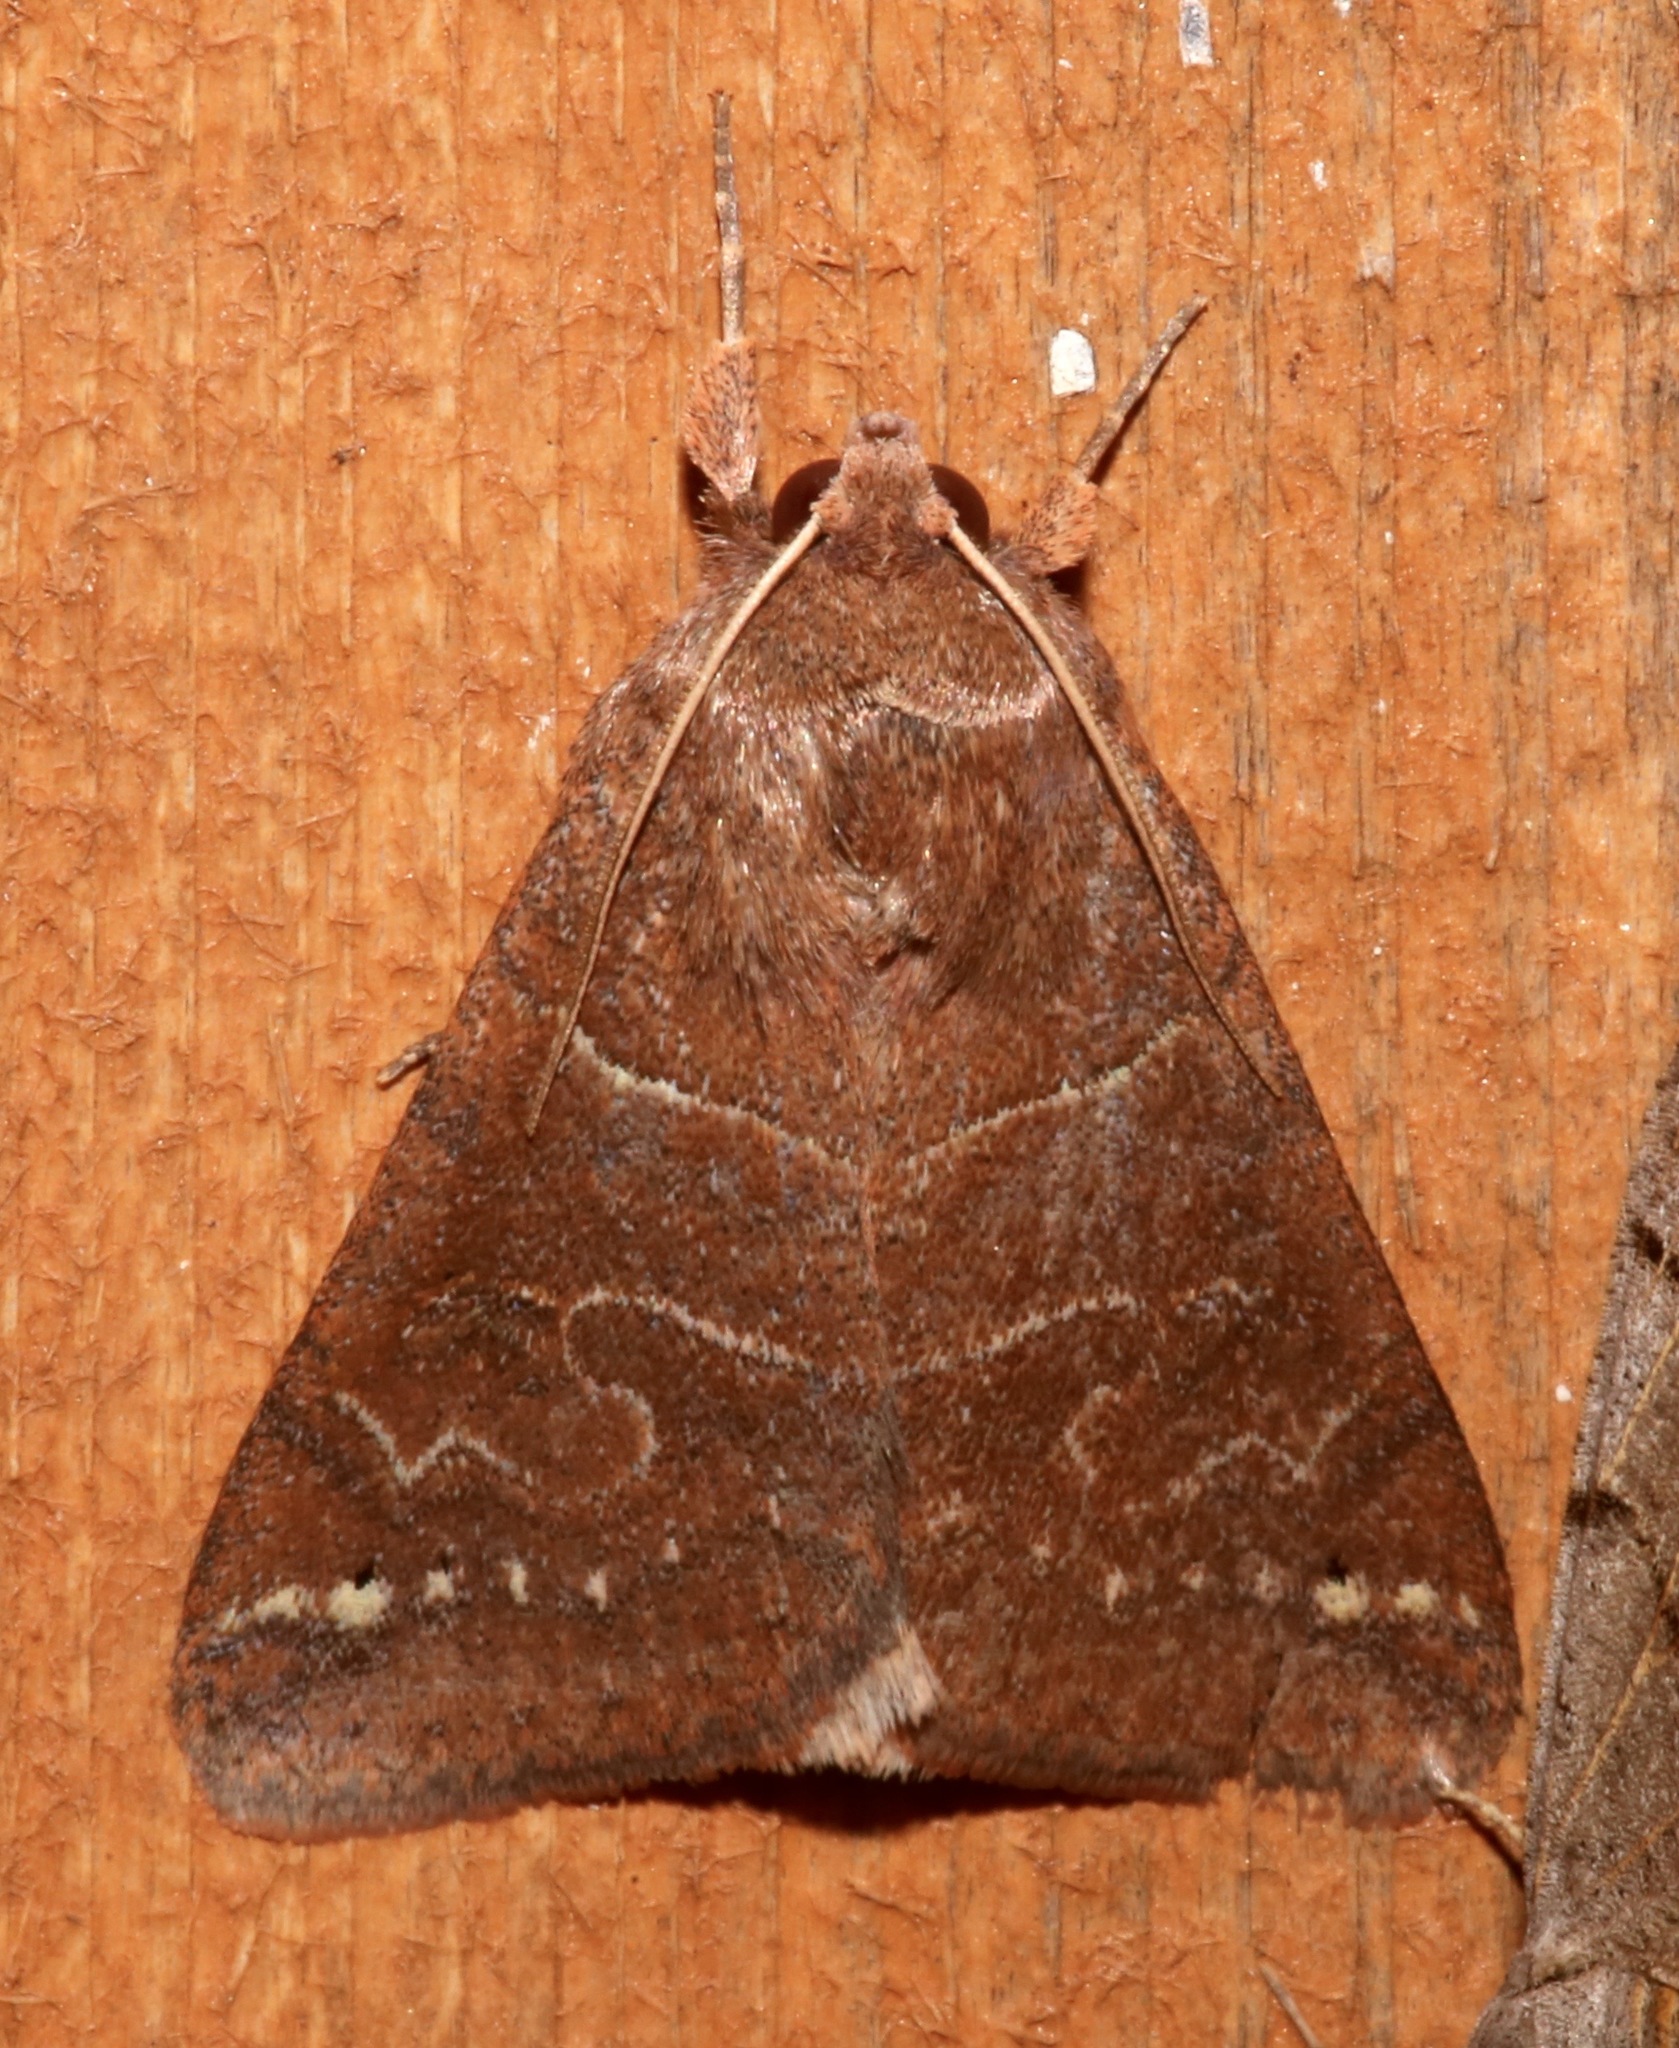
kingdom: Animalia
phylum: Arthropoda
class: Insecta
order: Lepidoptera
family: Erebidae
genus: Cissusa
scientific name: Cissusa spadix
